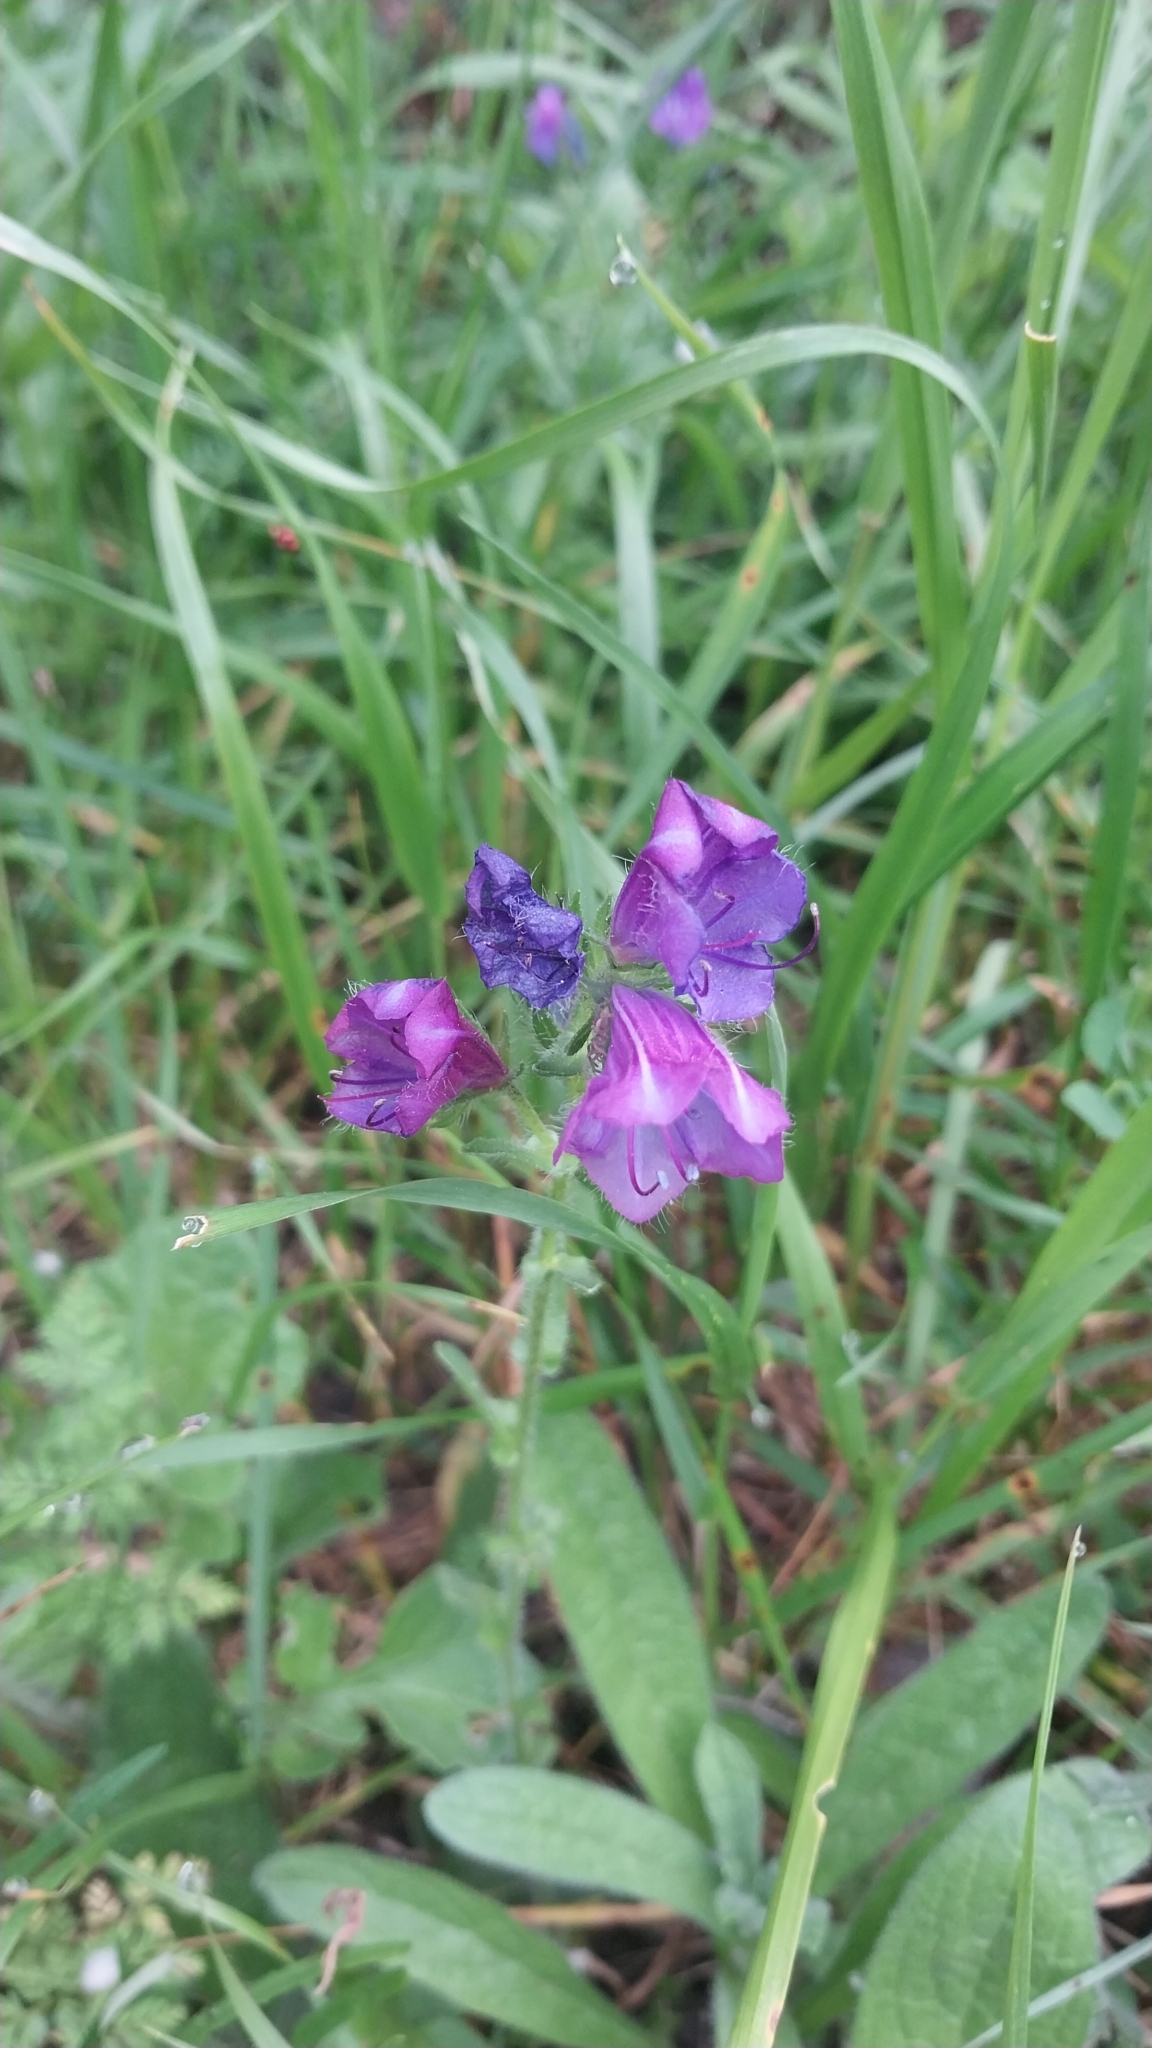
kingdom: Plantae
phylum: Tracheophyta
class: Magnoliopsida
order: Boraginales
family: Boraginaceae
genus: Echium
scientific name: Echium plantagineum
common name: Purple viper's-bugloss
